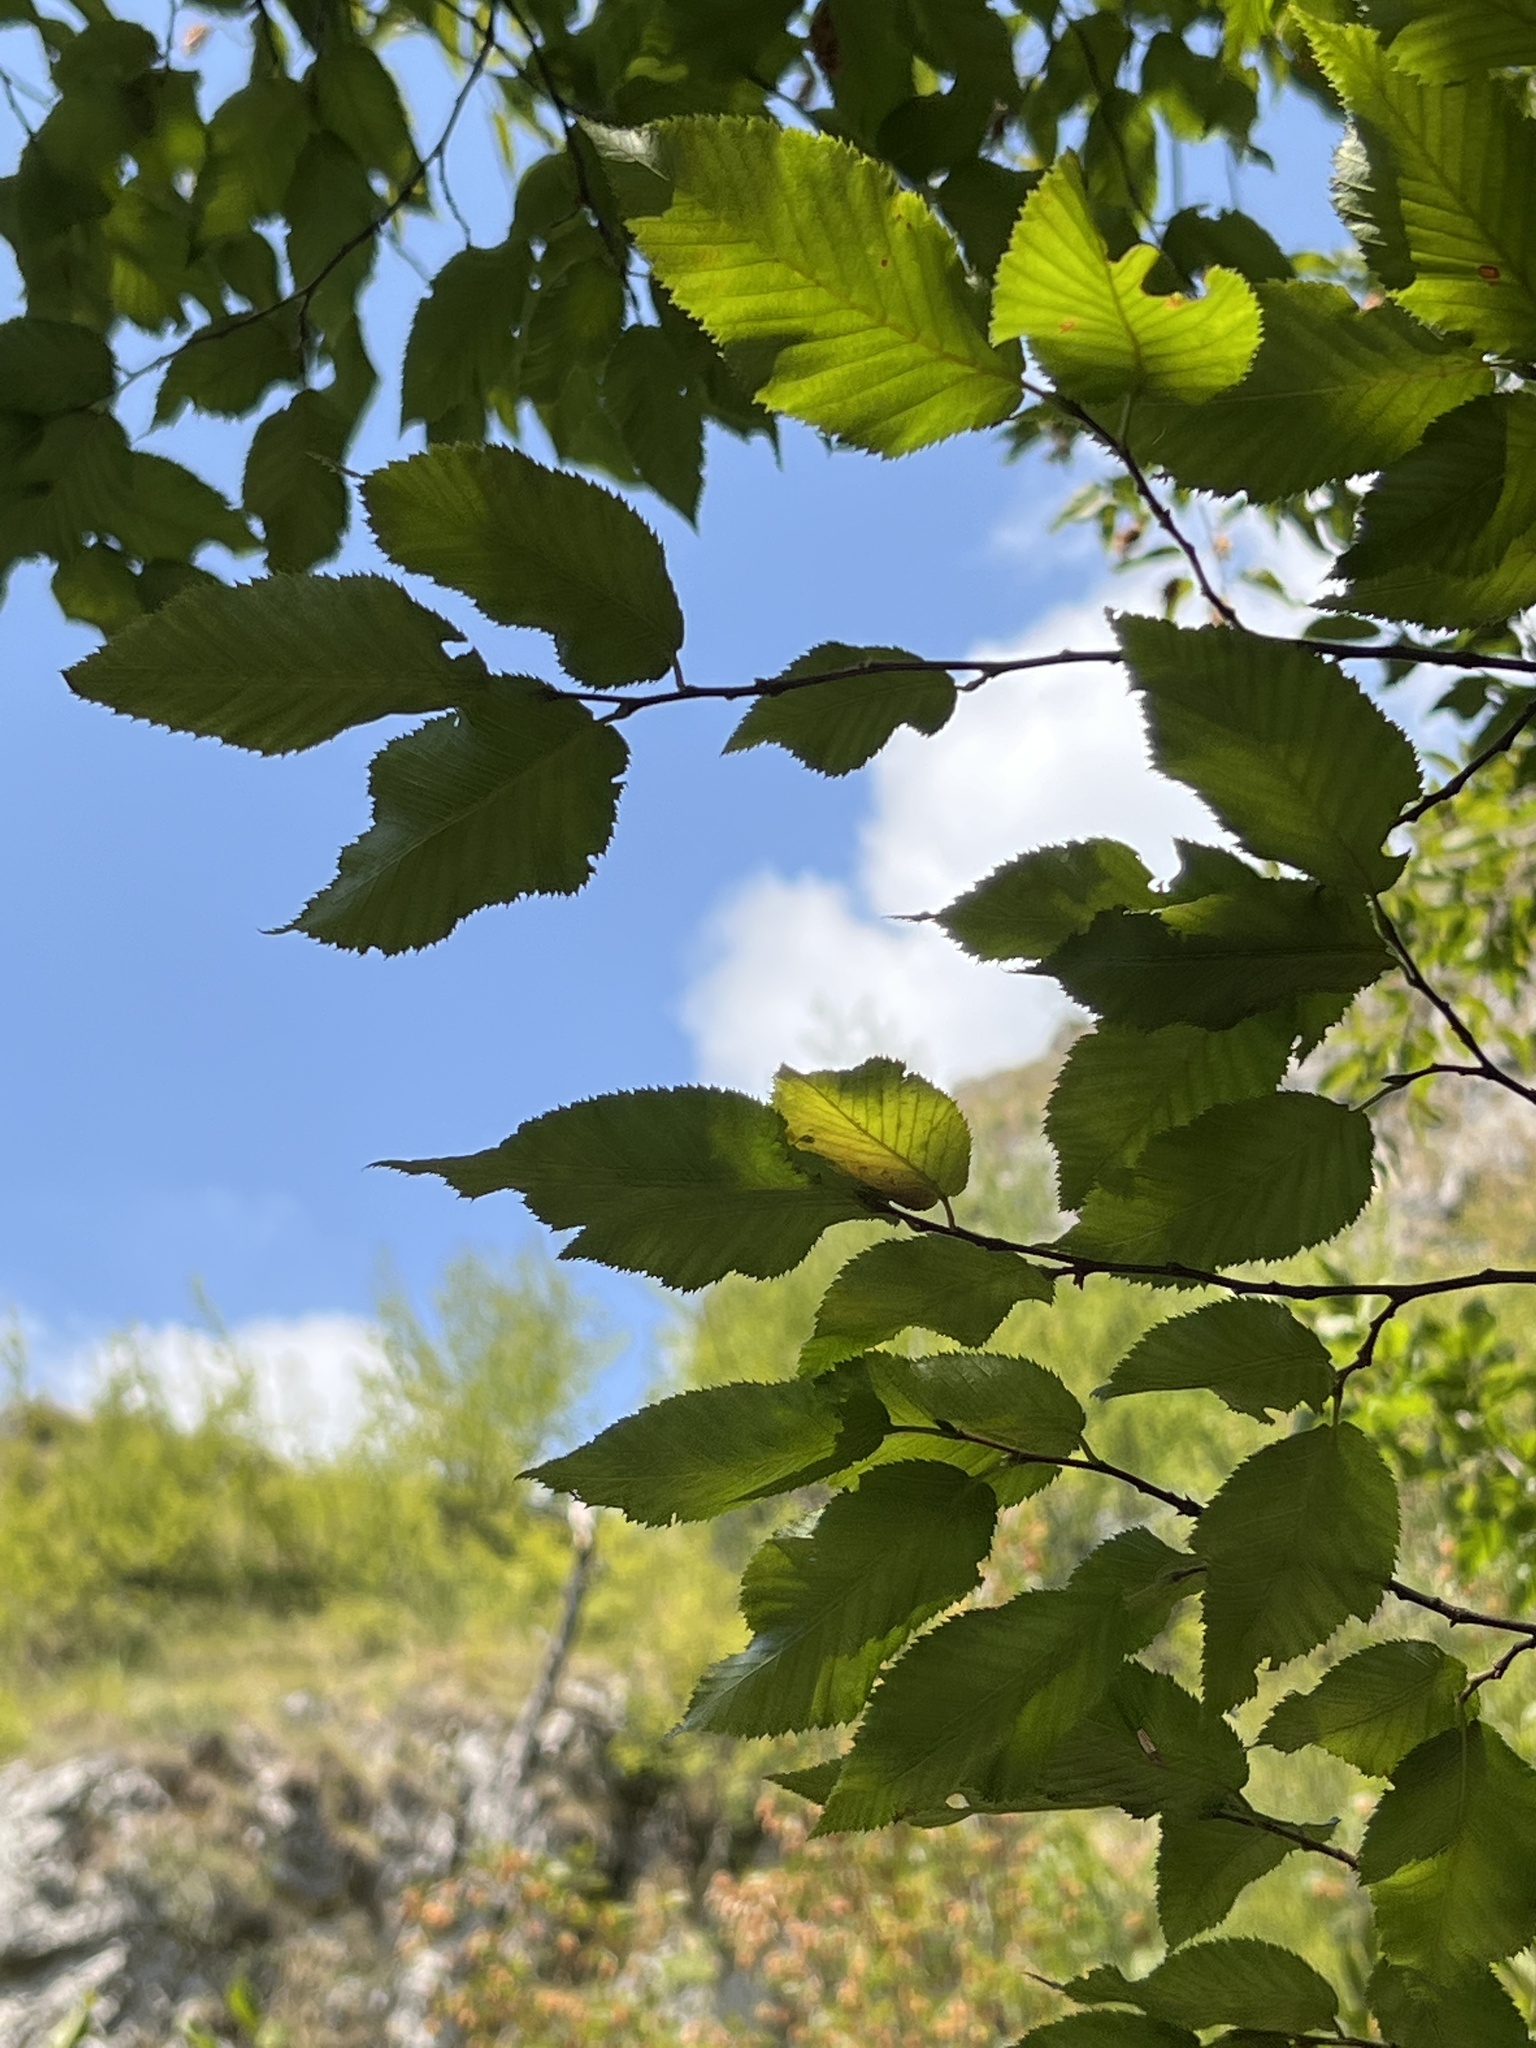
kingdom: Plantae
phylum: Tracheophyta
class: Magnoliopsida
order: Fagales
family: Betulaceae
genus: Ostrya
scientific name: Ostrya carpinifolia
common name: European hop-hornbeam
